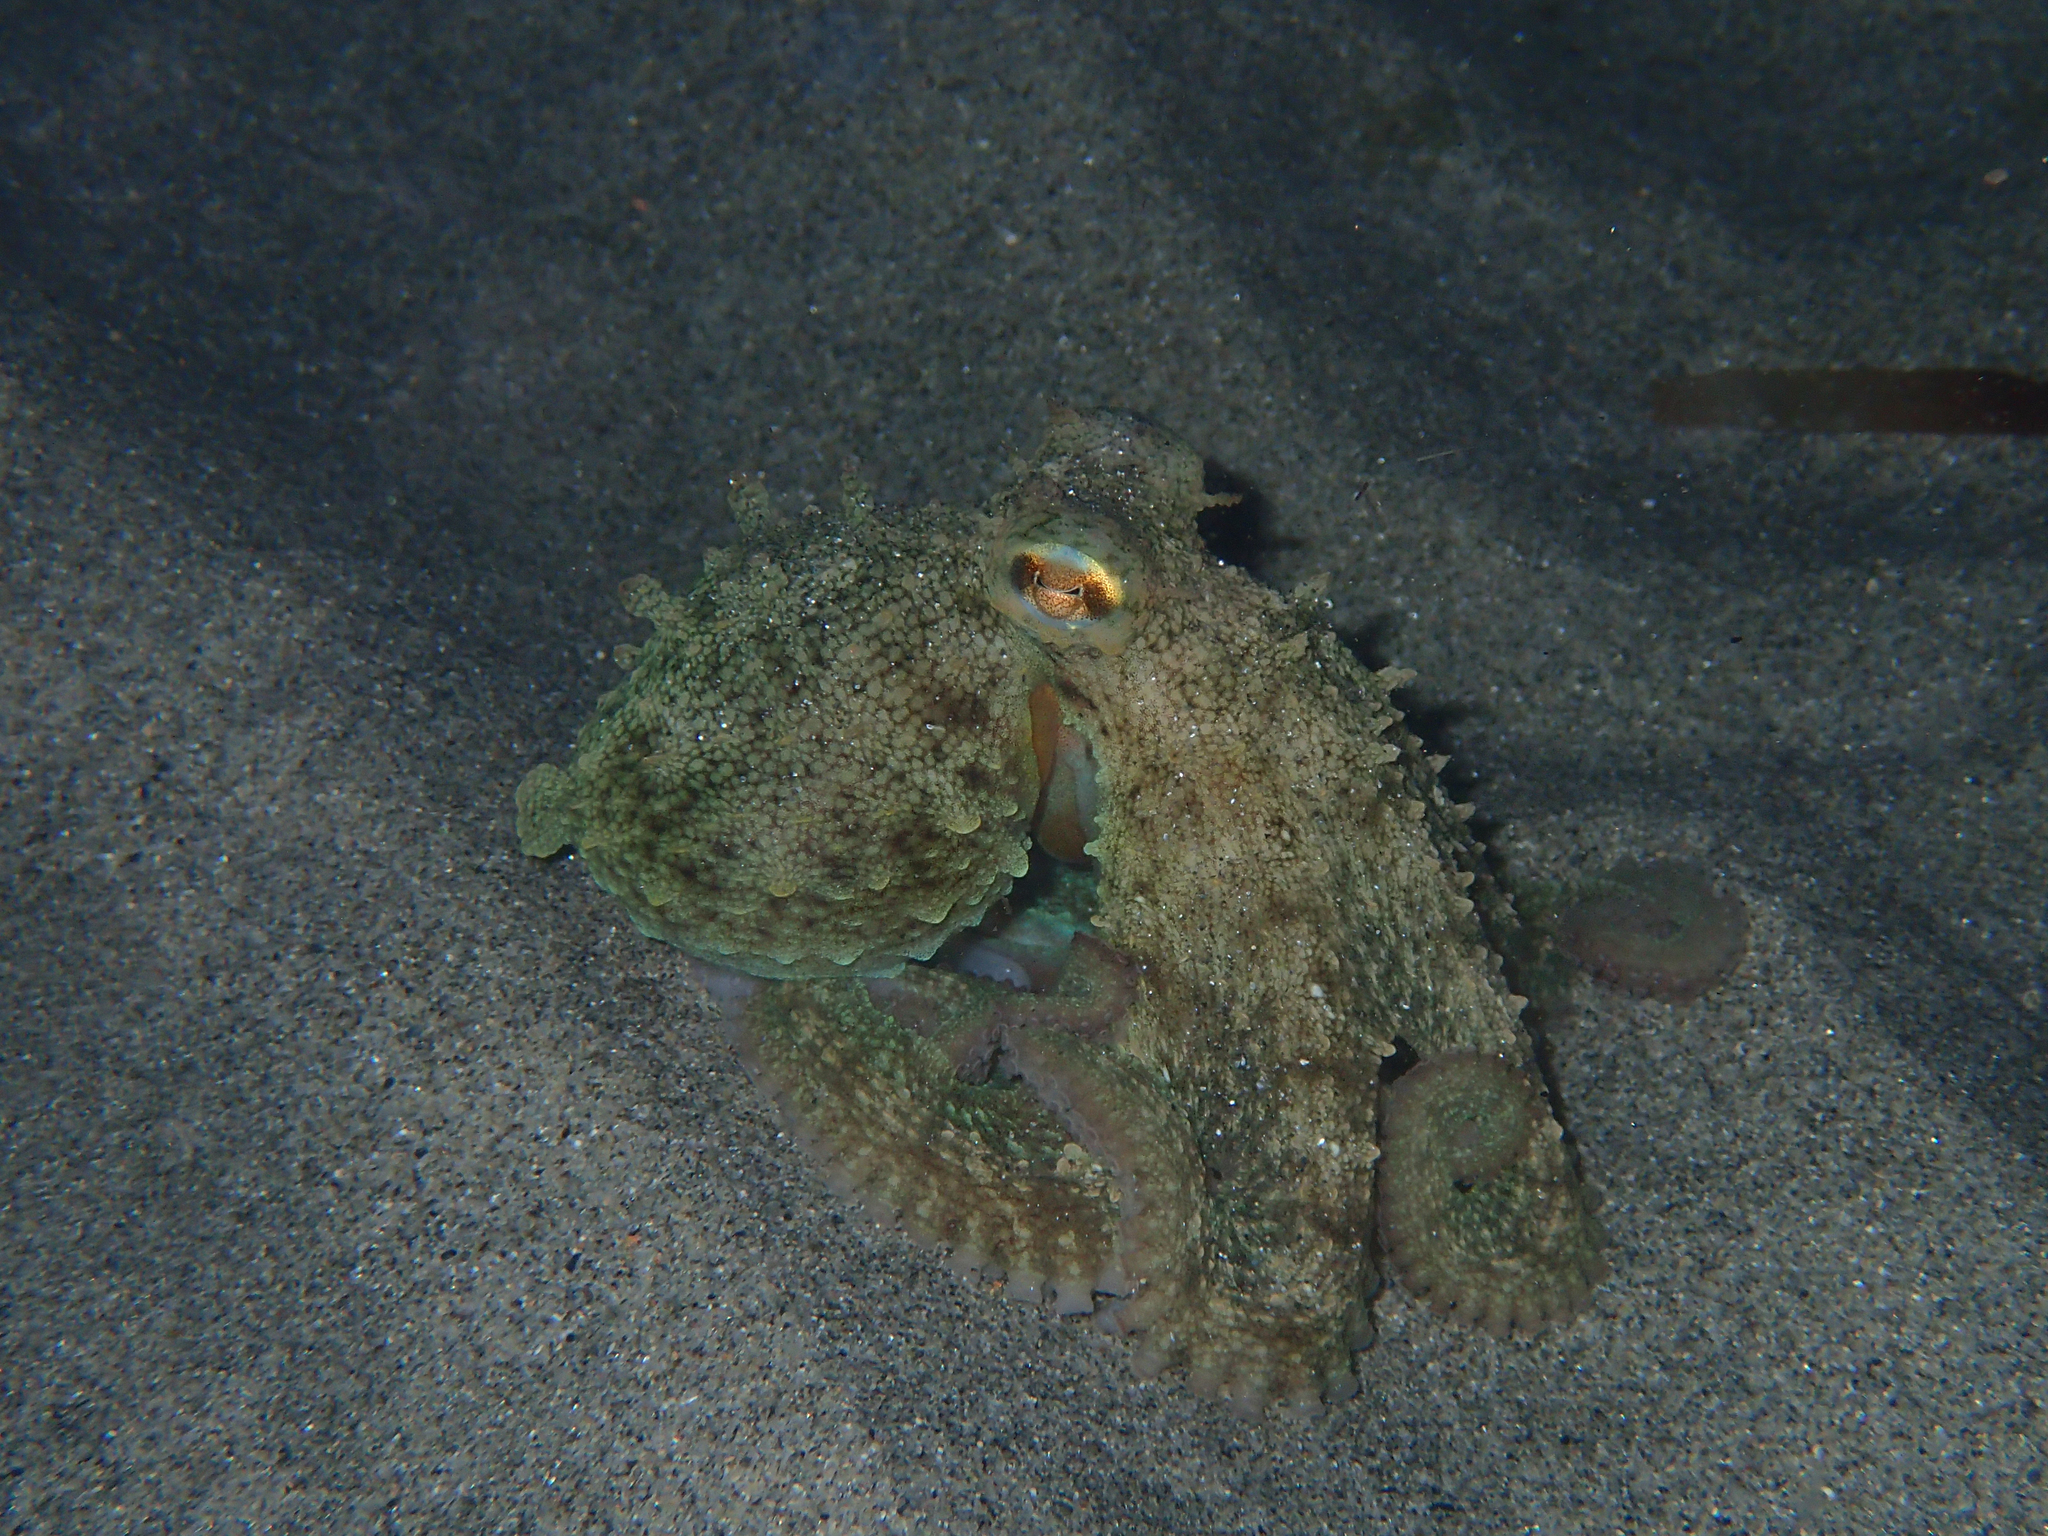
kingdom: Animalia
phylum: Mollusca
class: Cephalopoda
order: Octopoda
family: Octopodidae
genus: Octopus
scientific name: Octopus vulgaris
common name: Common octopus
